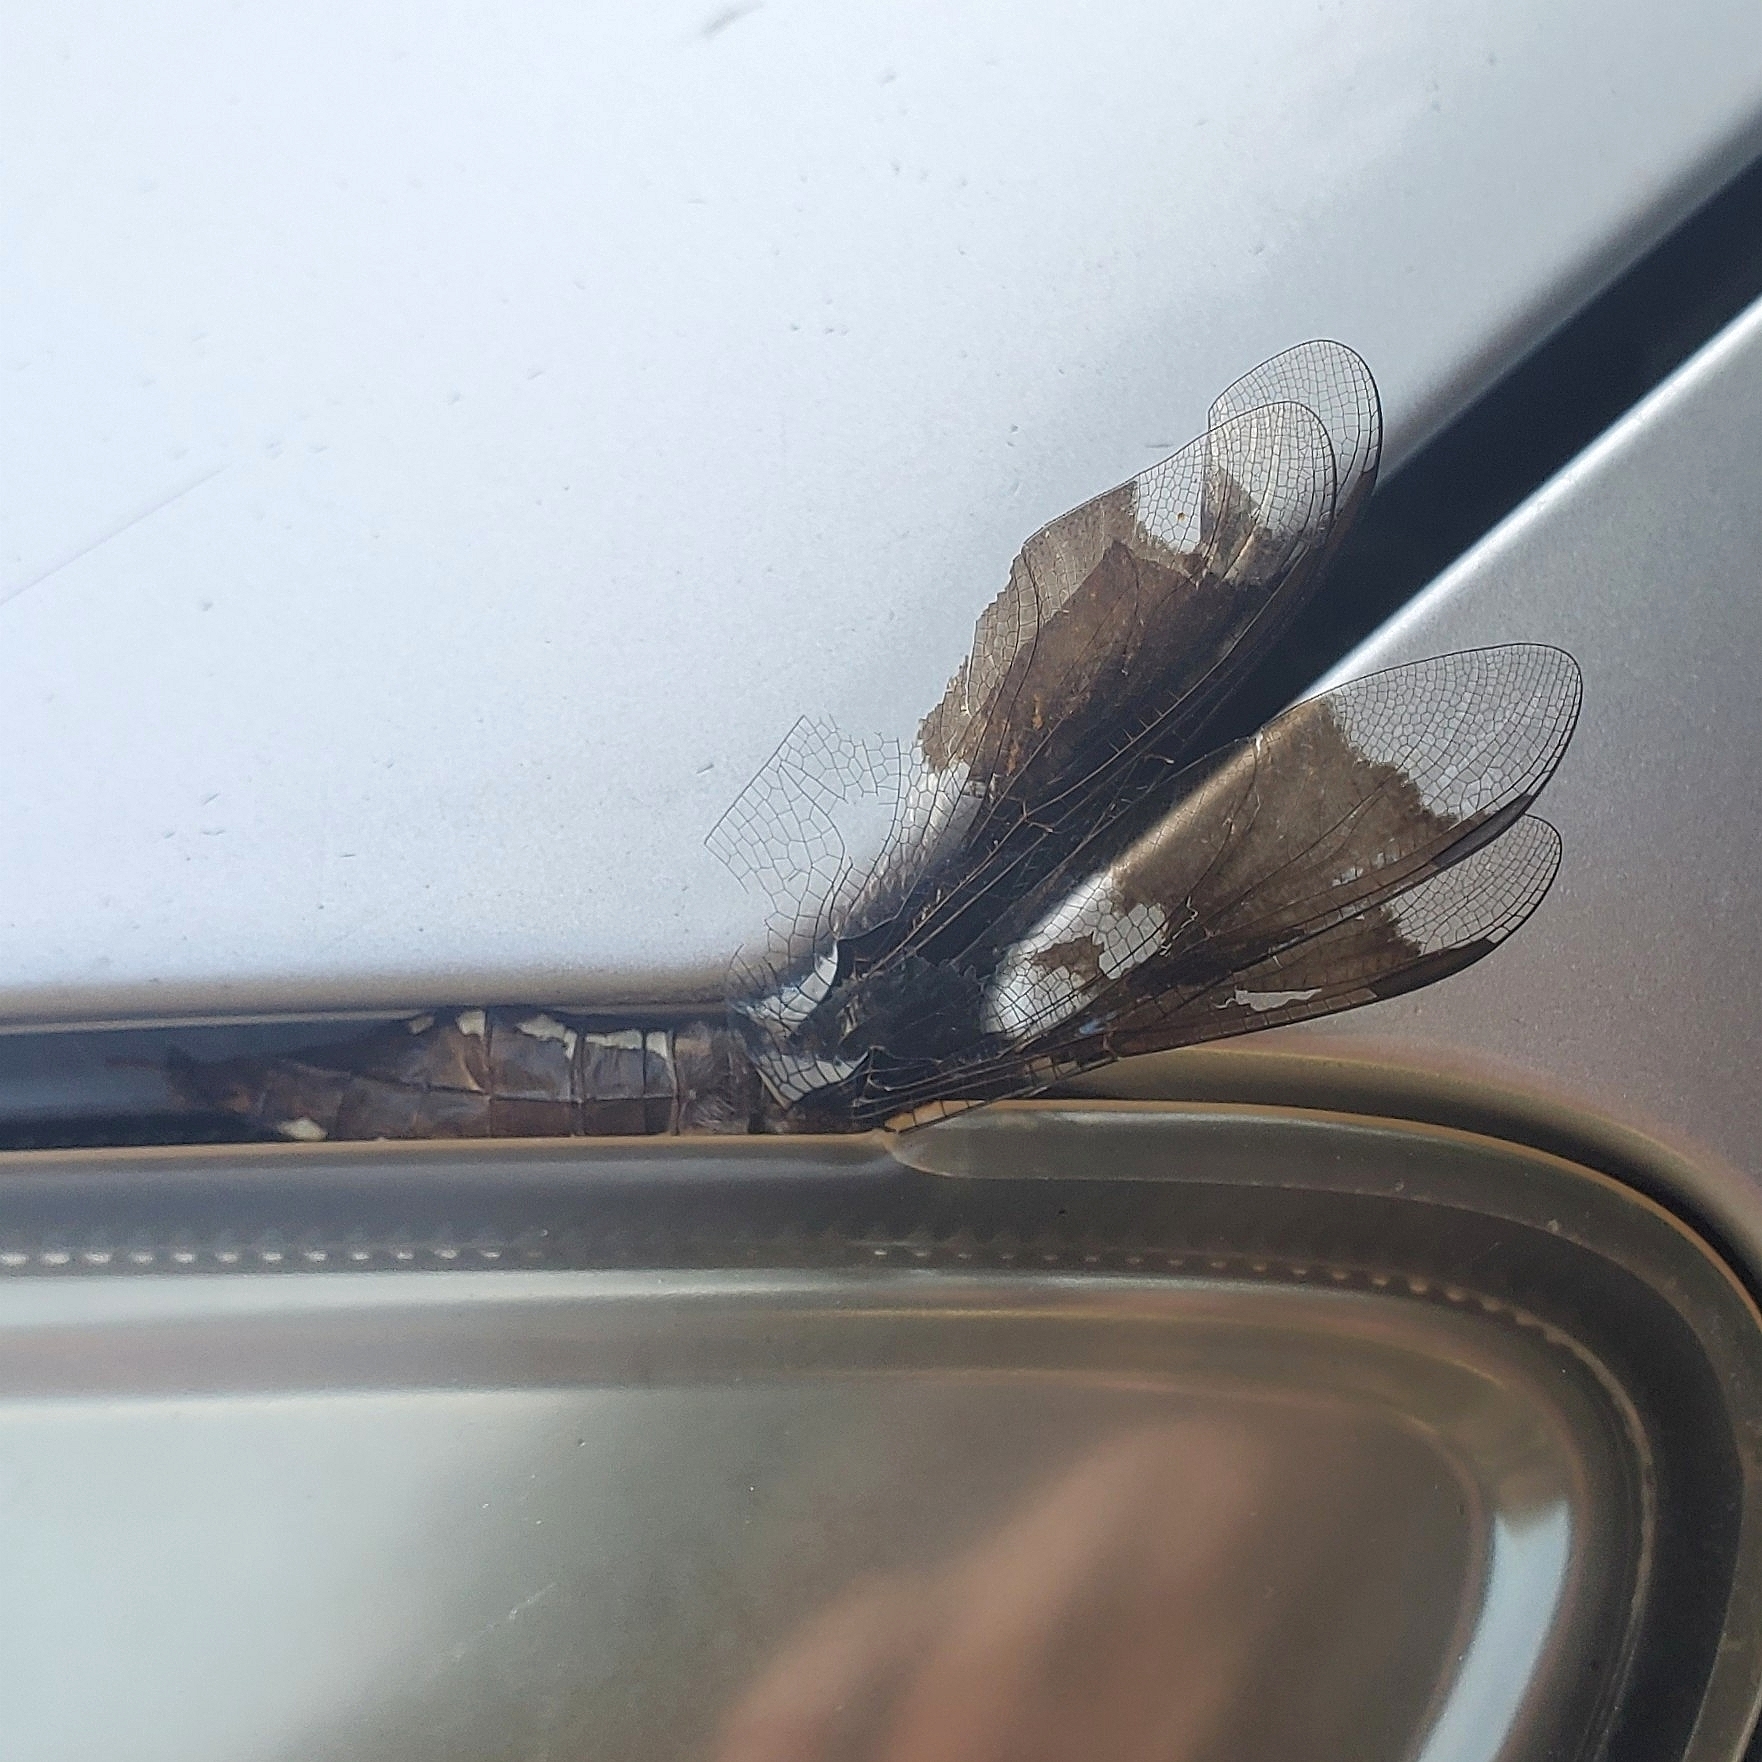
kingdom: Animalia
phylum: Arthropoda
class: Insecta
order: Odonata
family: Libellulidae
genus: Plathemis
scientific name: Plathemis lydia
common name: Common whitetail
